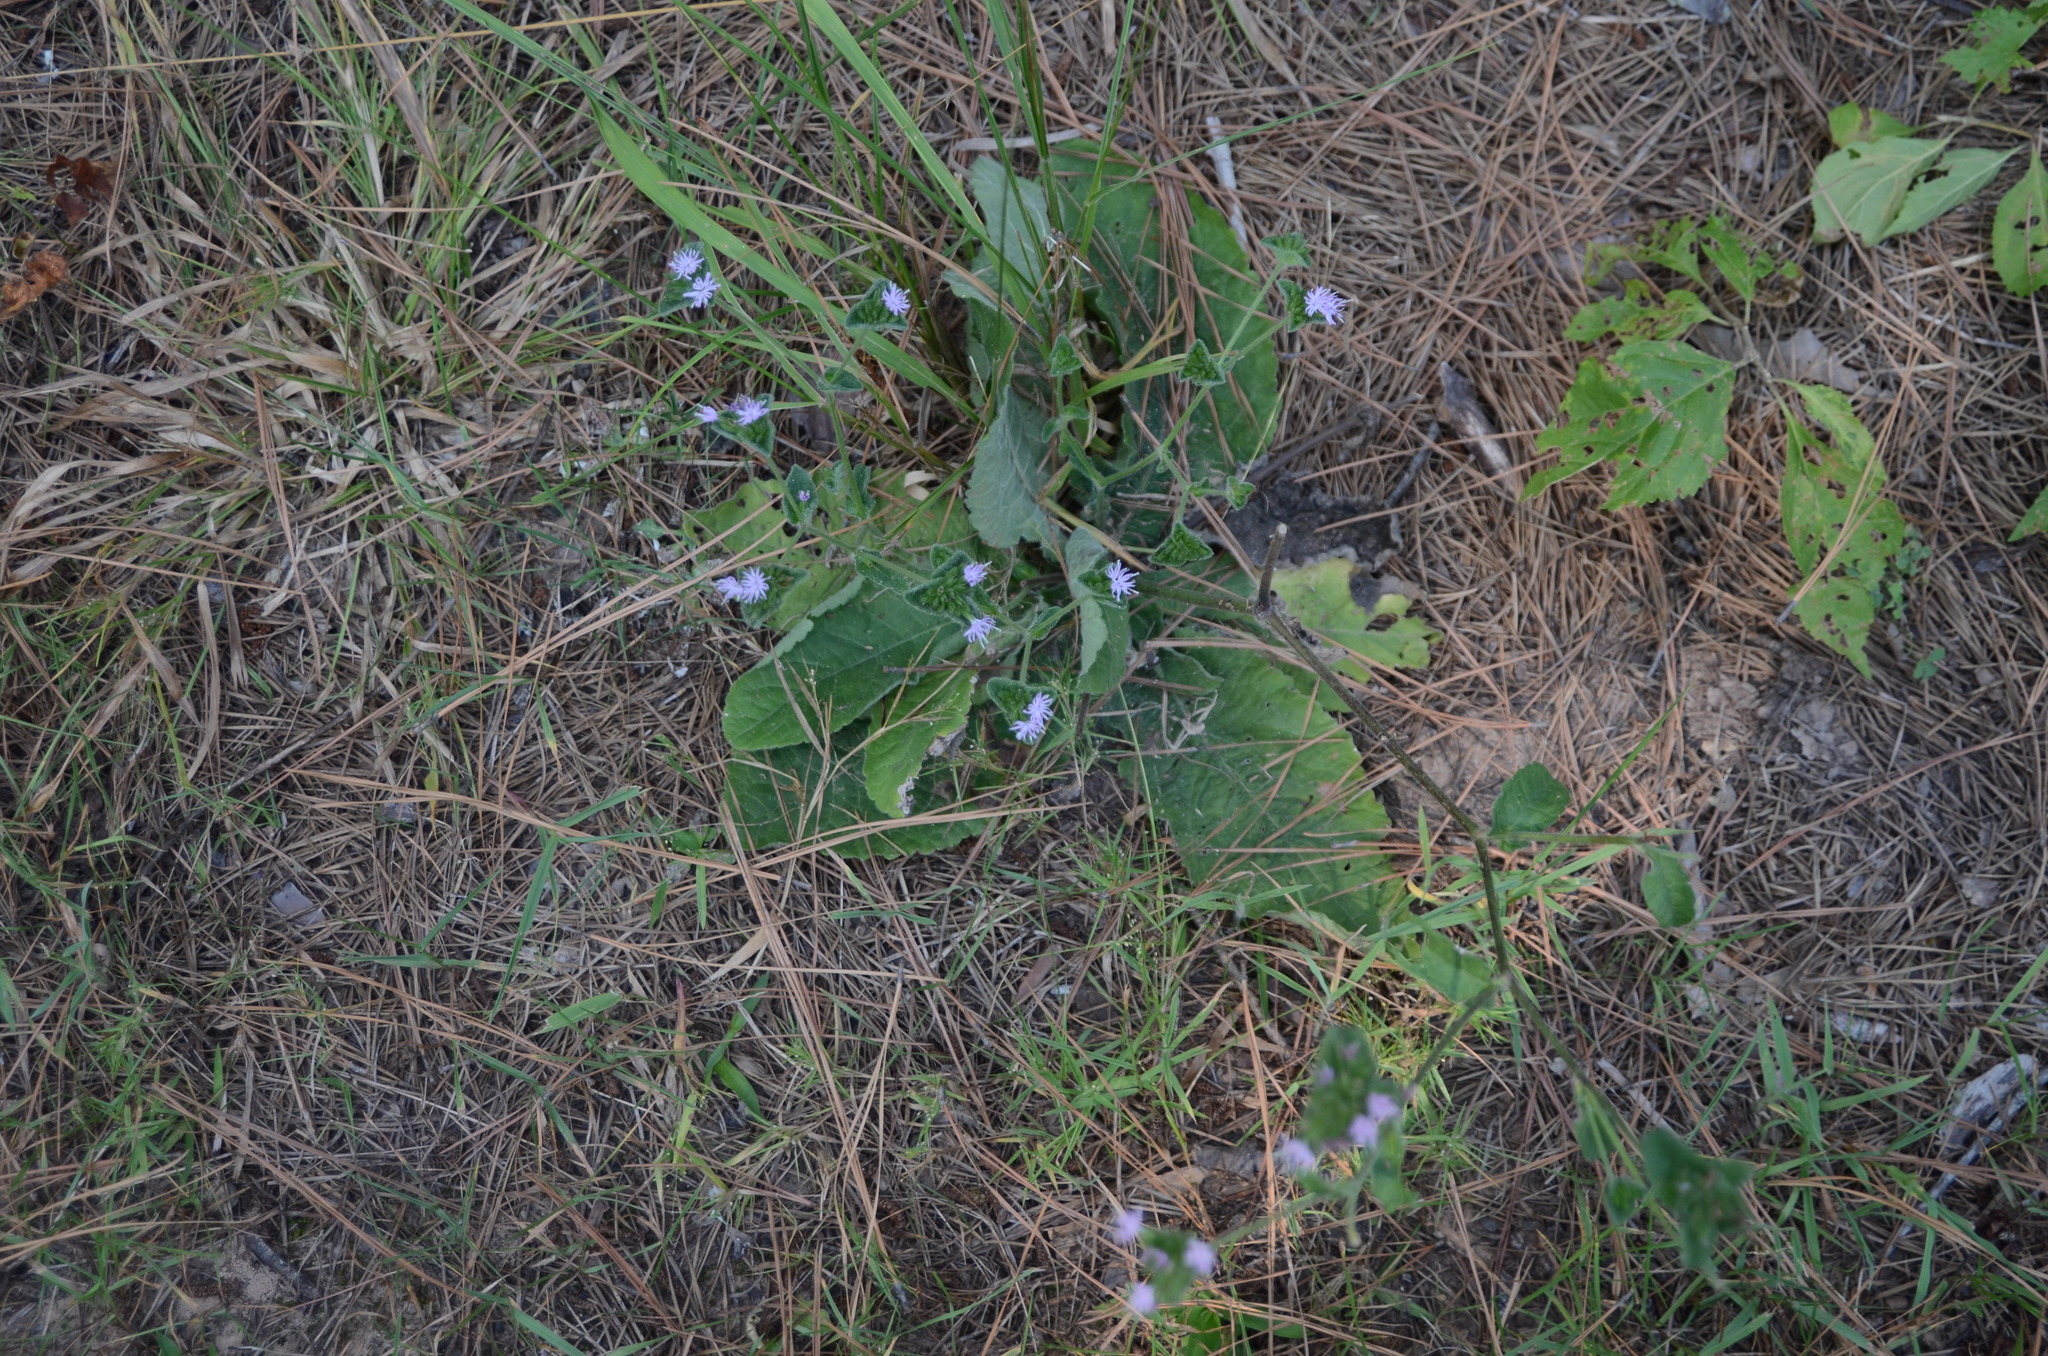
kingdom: Plantae
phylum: Tracheophyta
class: Magnoliopsida
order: Asterales
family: Asteraceae
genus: Elephantopus
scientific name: Elephantopus carolinianus
